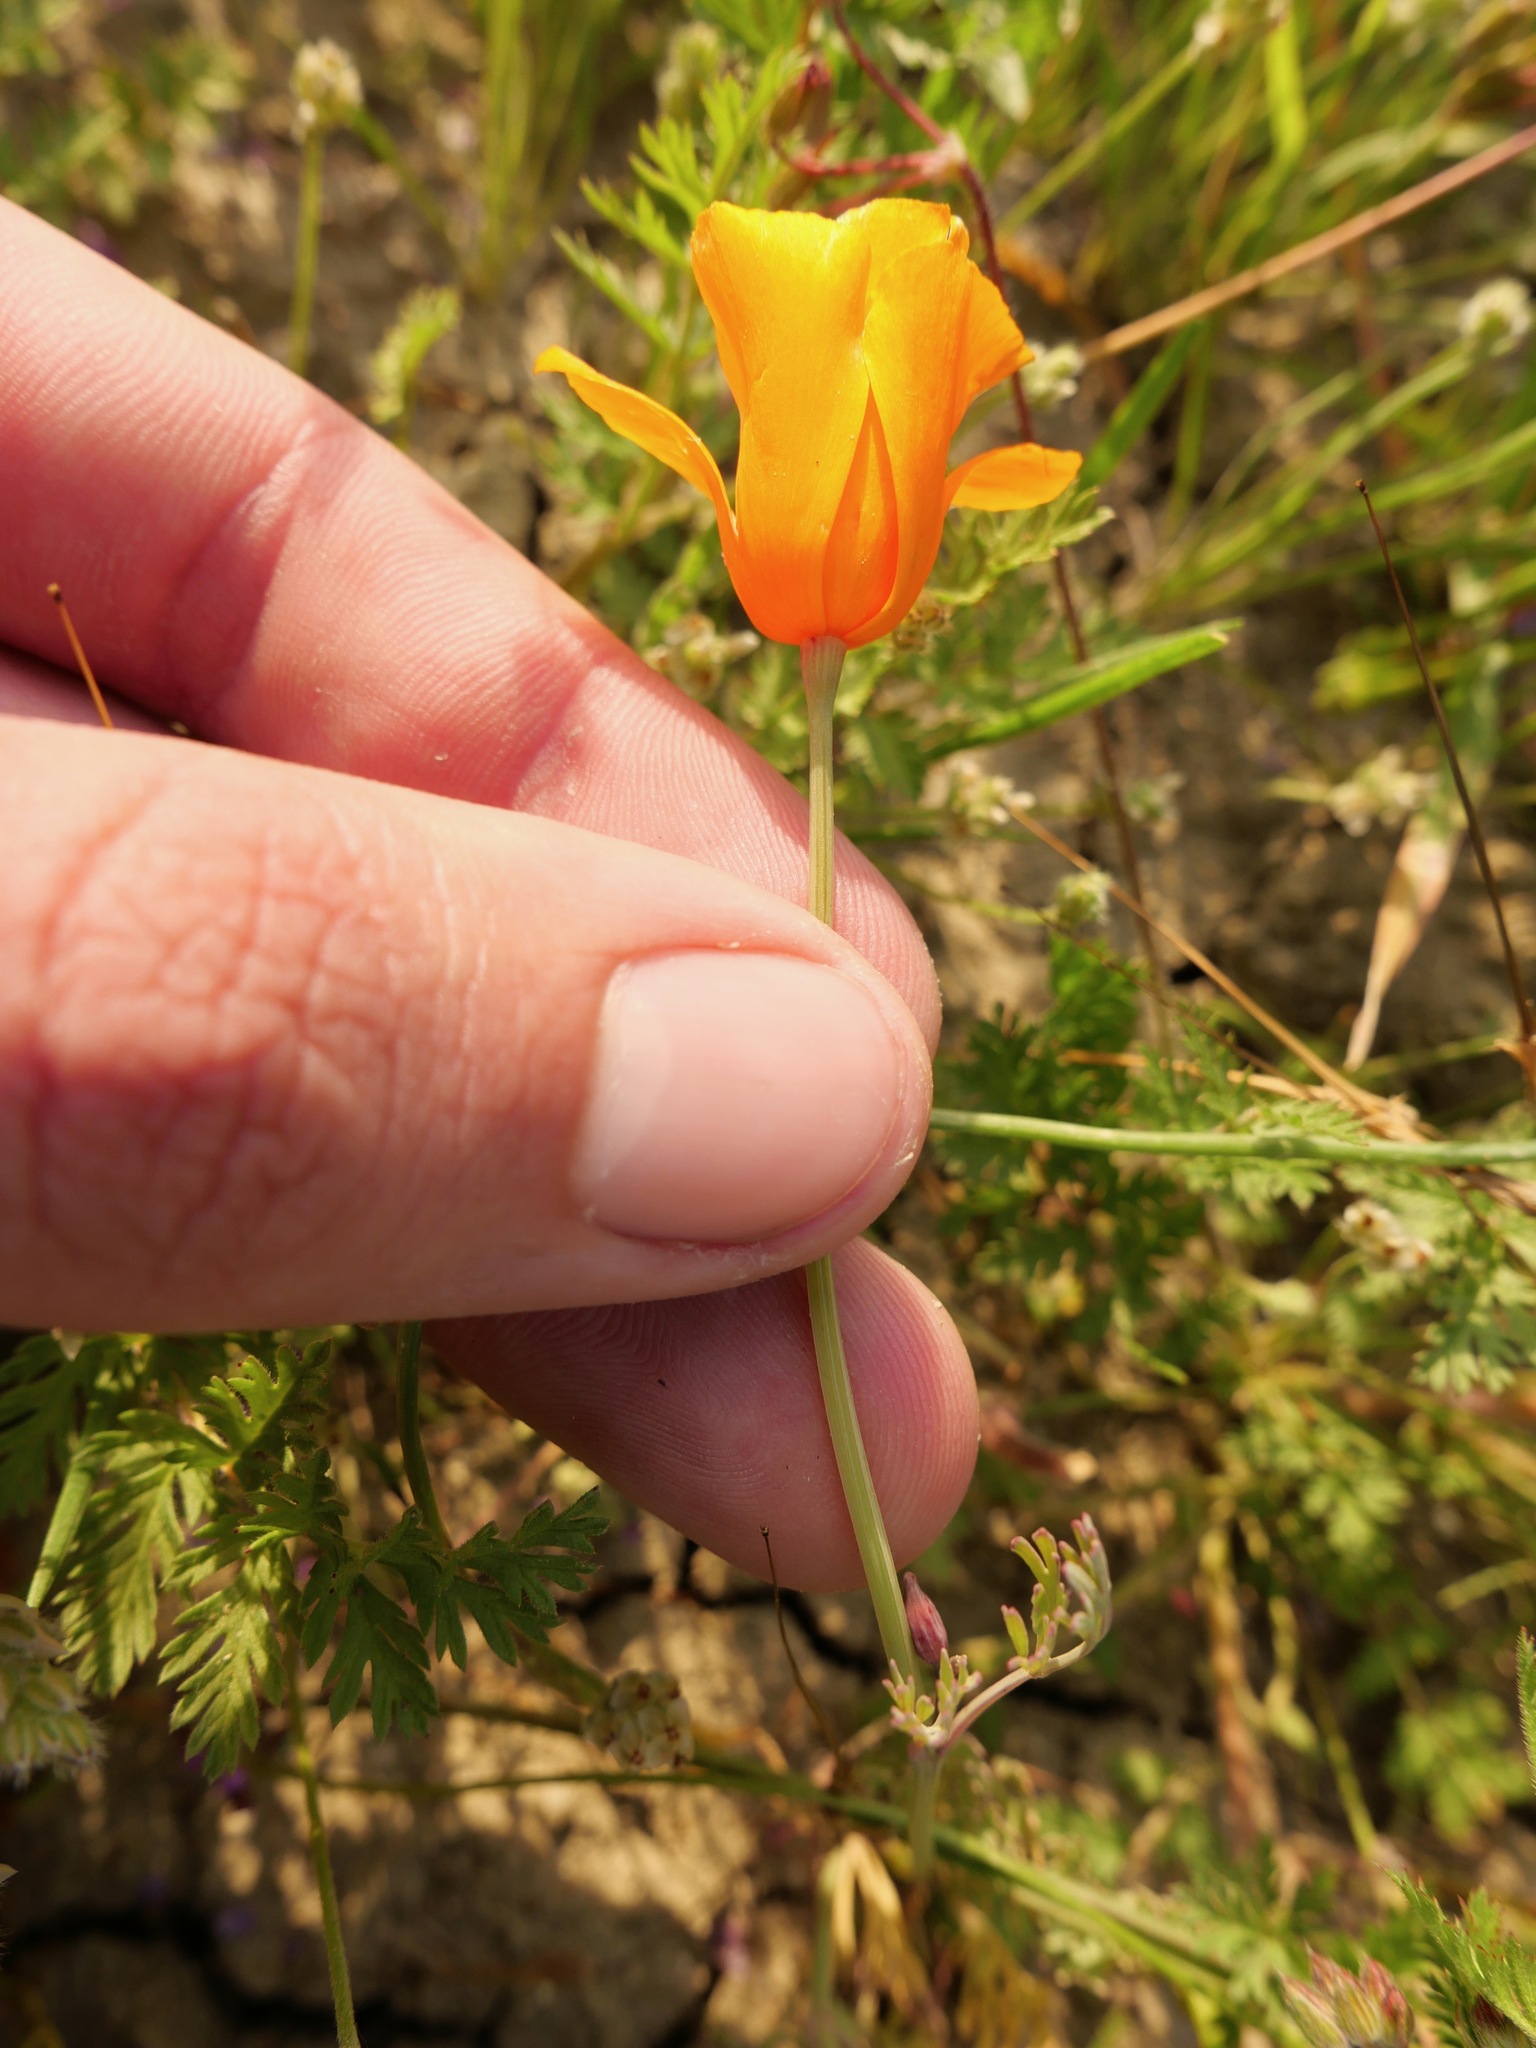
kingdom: Plantae
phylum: Tracheophyta
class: Magnoliopsida
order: Ranunculales
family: Papaveraceae
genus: Eschscholzia
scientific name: Eschscholzia lemmonii
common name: Lemmon's poppy
